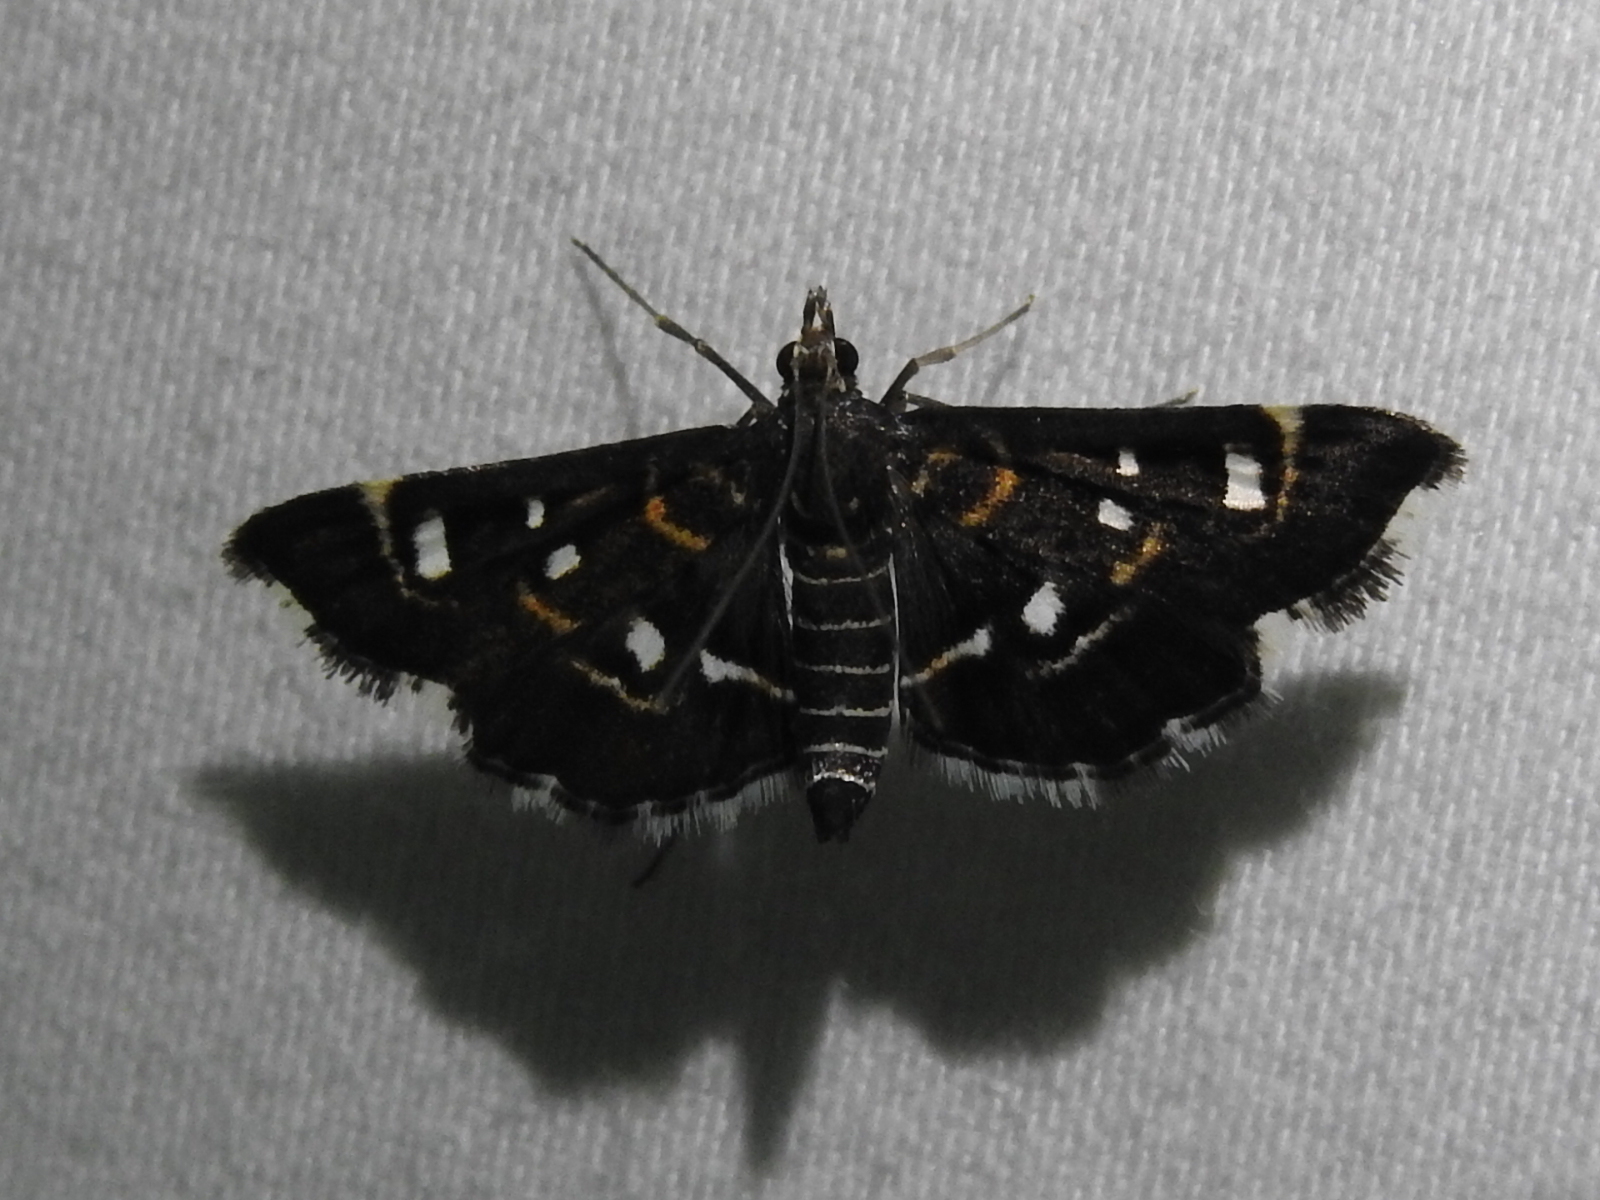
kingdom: Animalia
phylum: Arthropoda
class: Insecta
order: Lepidoptera
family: Crambidae
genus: Diathrausta
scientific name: Diathrausta harlequinalis
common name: Harlequin webworm moth
